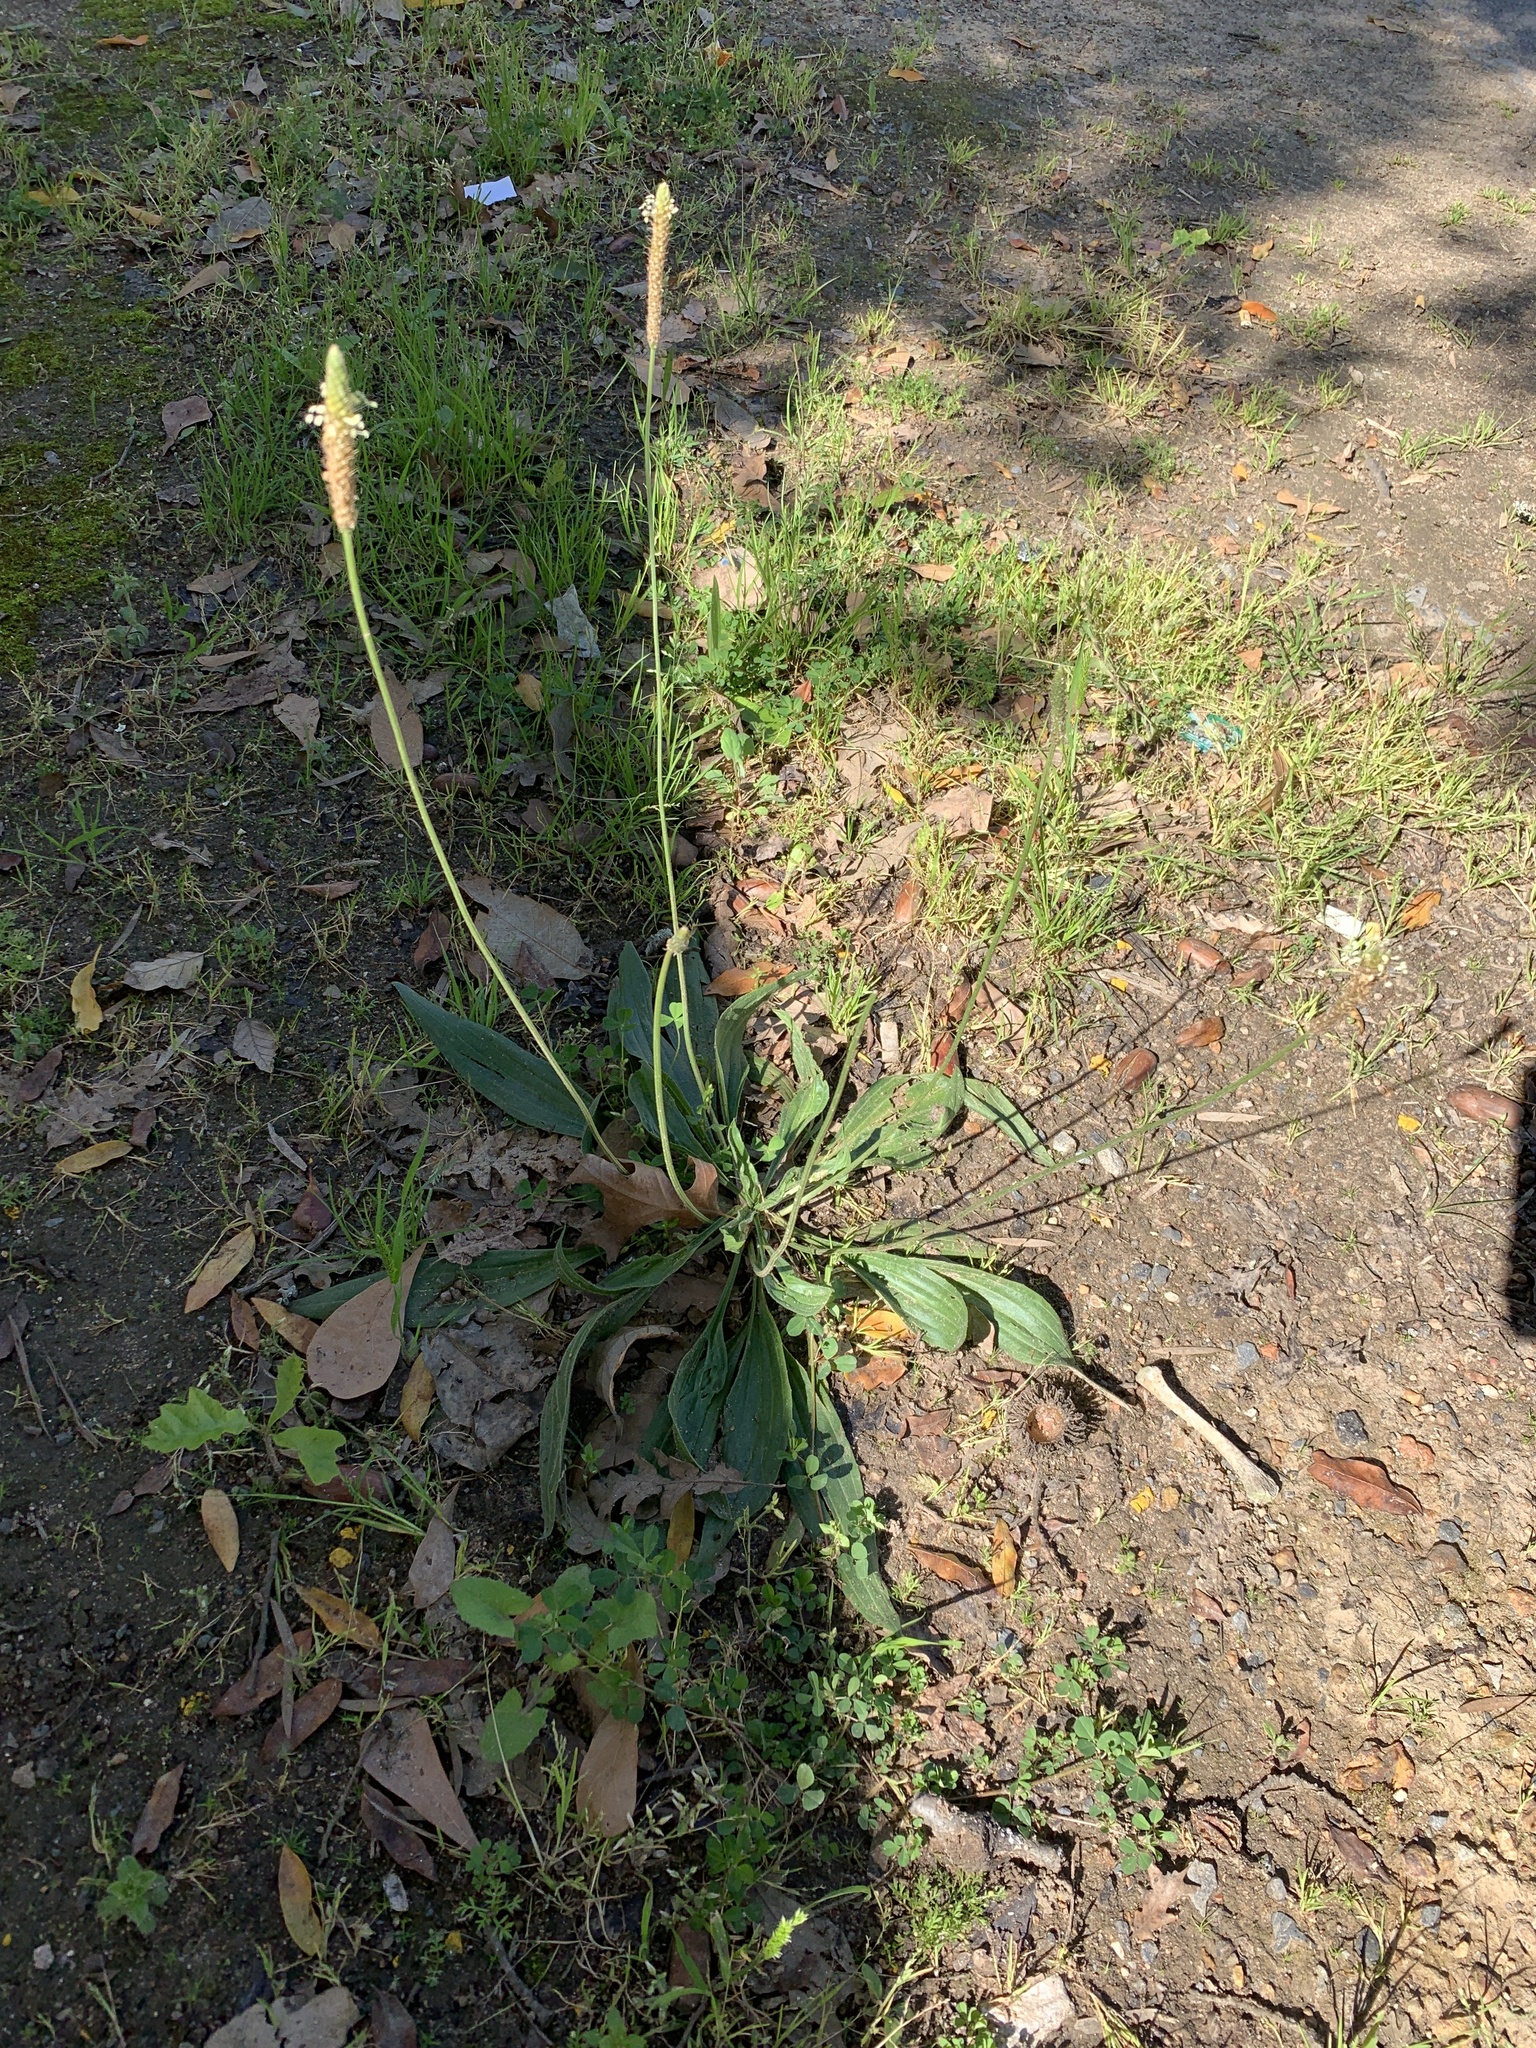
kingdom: Plantae
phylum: Tracheophyta
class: Magnoliopsida
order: Lamiales
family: Plantaginaceae
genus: Plantago
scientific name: Plantago lanceolata
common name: Ribwort plantain
